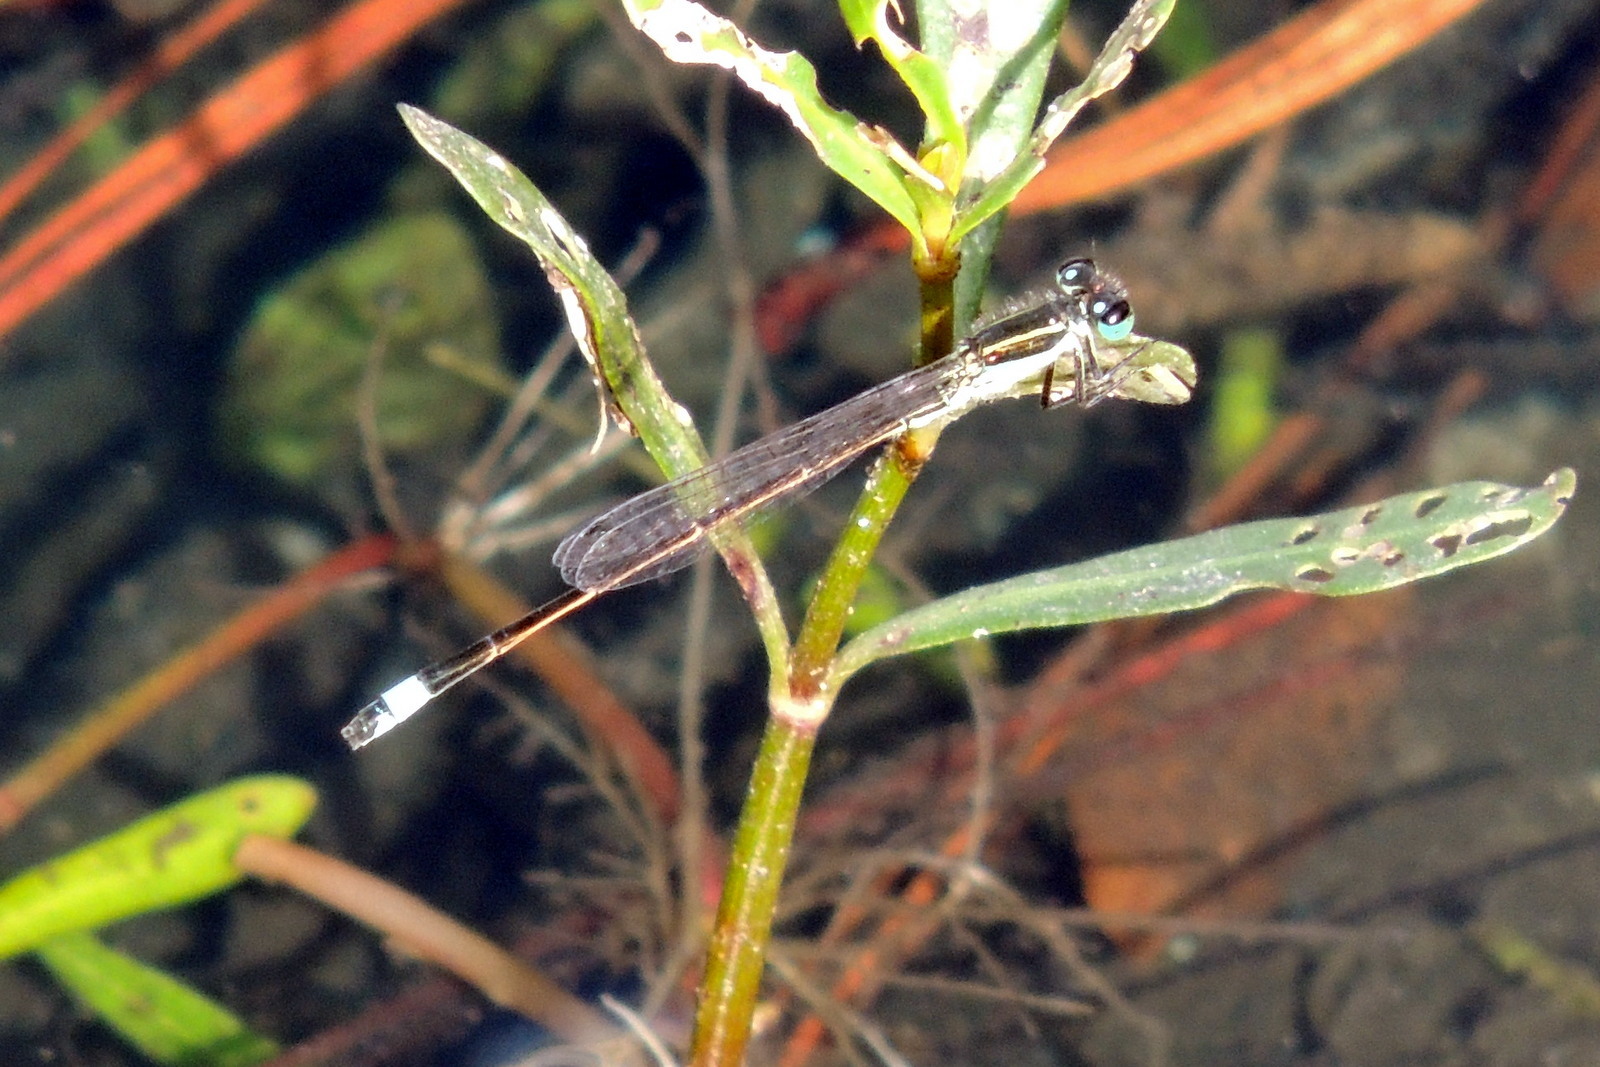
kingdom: Animalia
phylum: Arthropoda
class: Insecta
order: Odonata
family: Coenagrionidae
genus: Ischnura
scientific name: Ischnura ramburii
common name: Rambur's forktail
